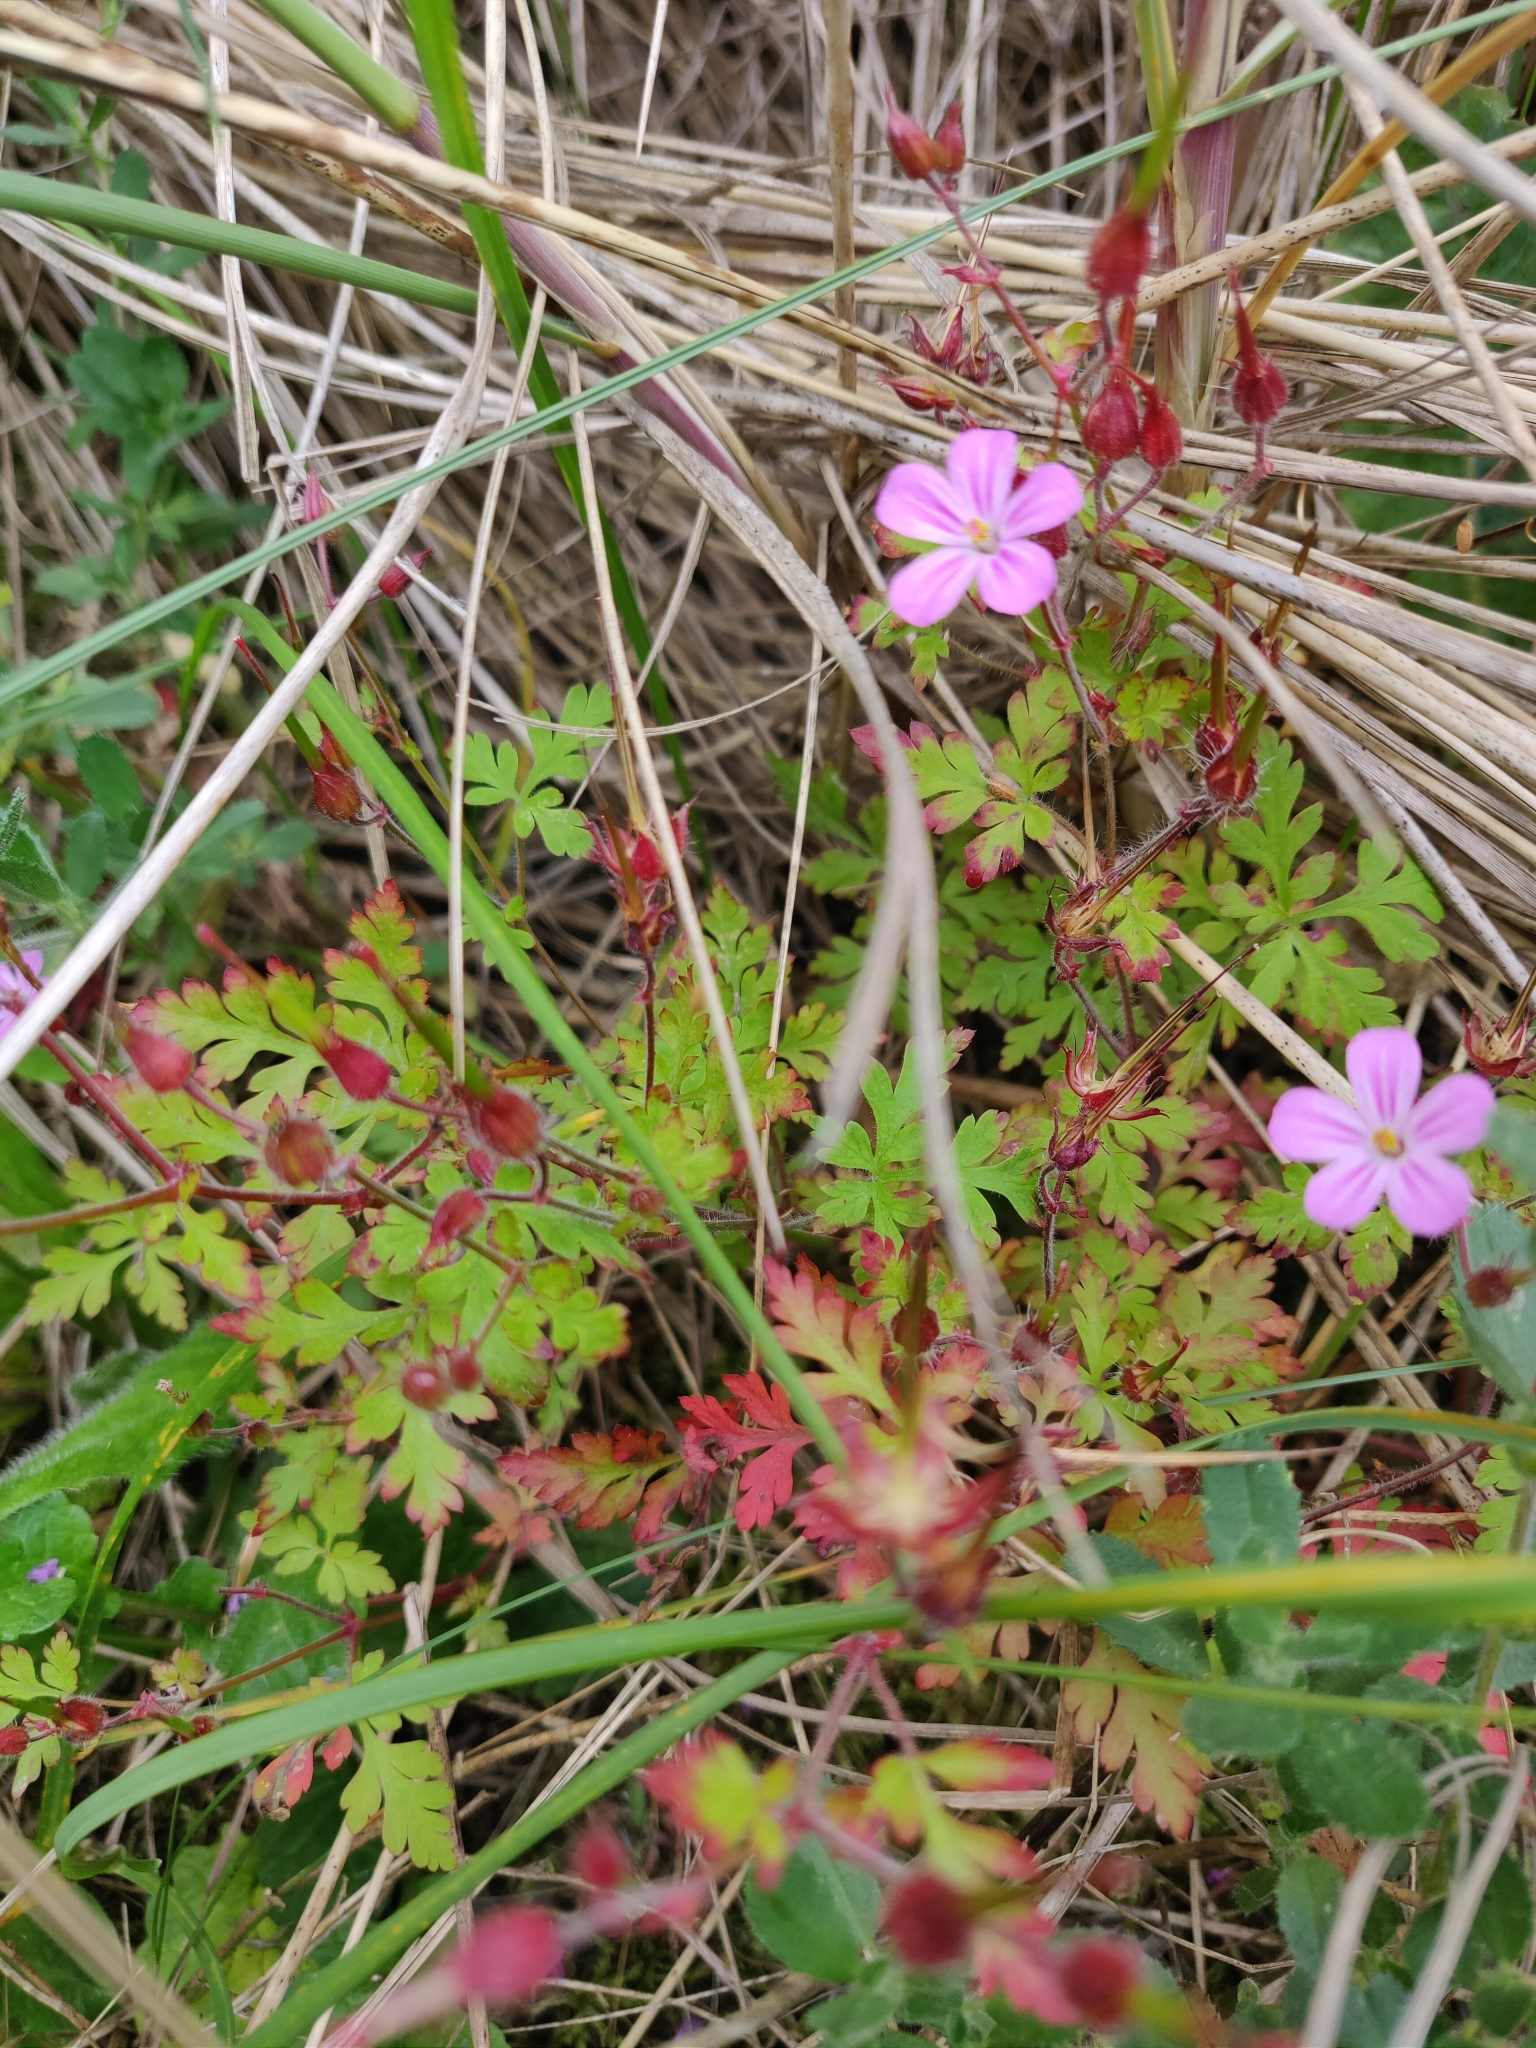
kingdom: Plantae
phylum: Tracheophyta
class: Magnoliopsida
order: Geraniales
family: Geraniaceae
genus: Geranium
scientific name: Geranium robertianum
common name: Herb-robert
